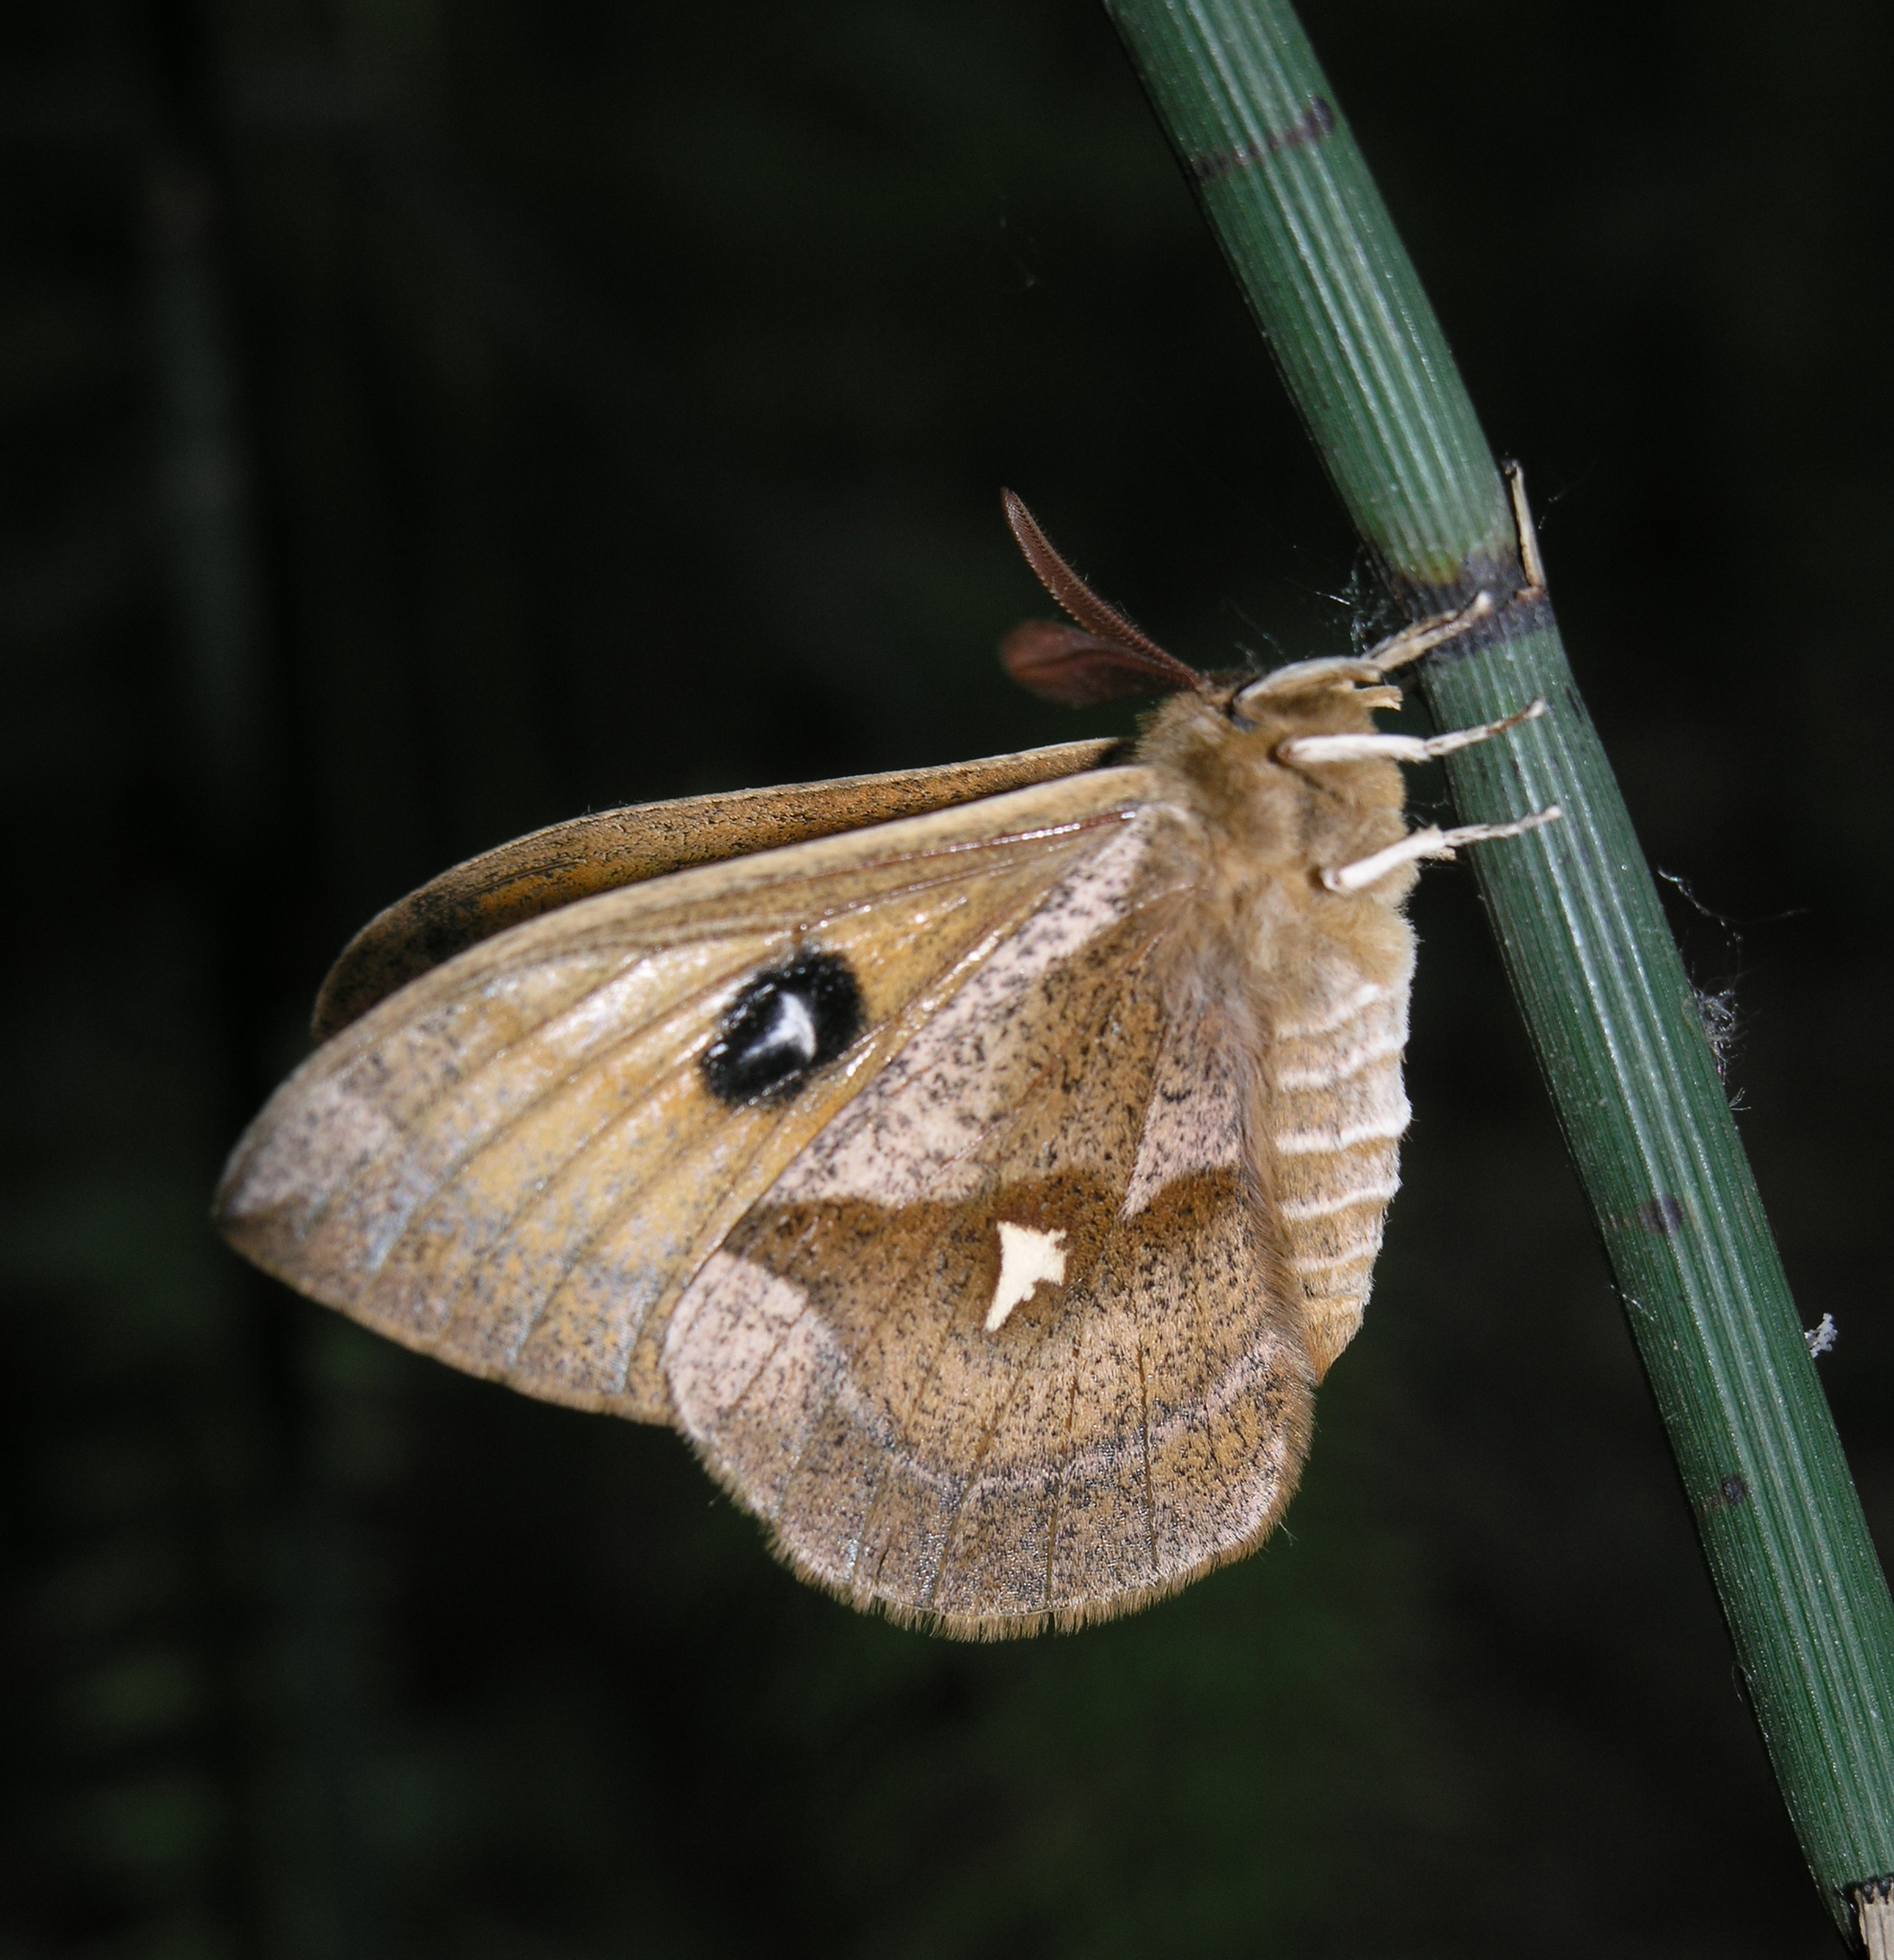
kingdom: Animalia
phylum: Arthropoda
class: Insecta
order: Lepidoptera
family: Saturniidae
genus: Aglia
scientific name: Aglia tau
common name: Tau emperor
